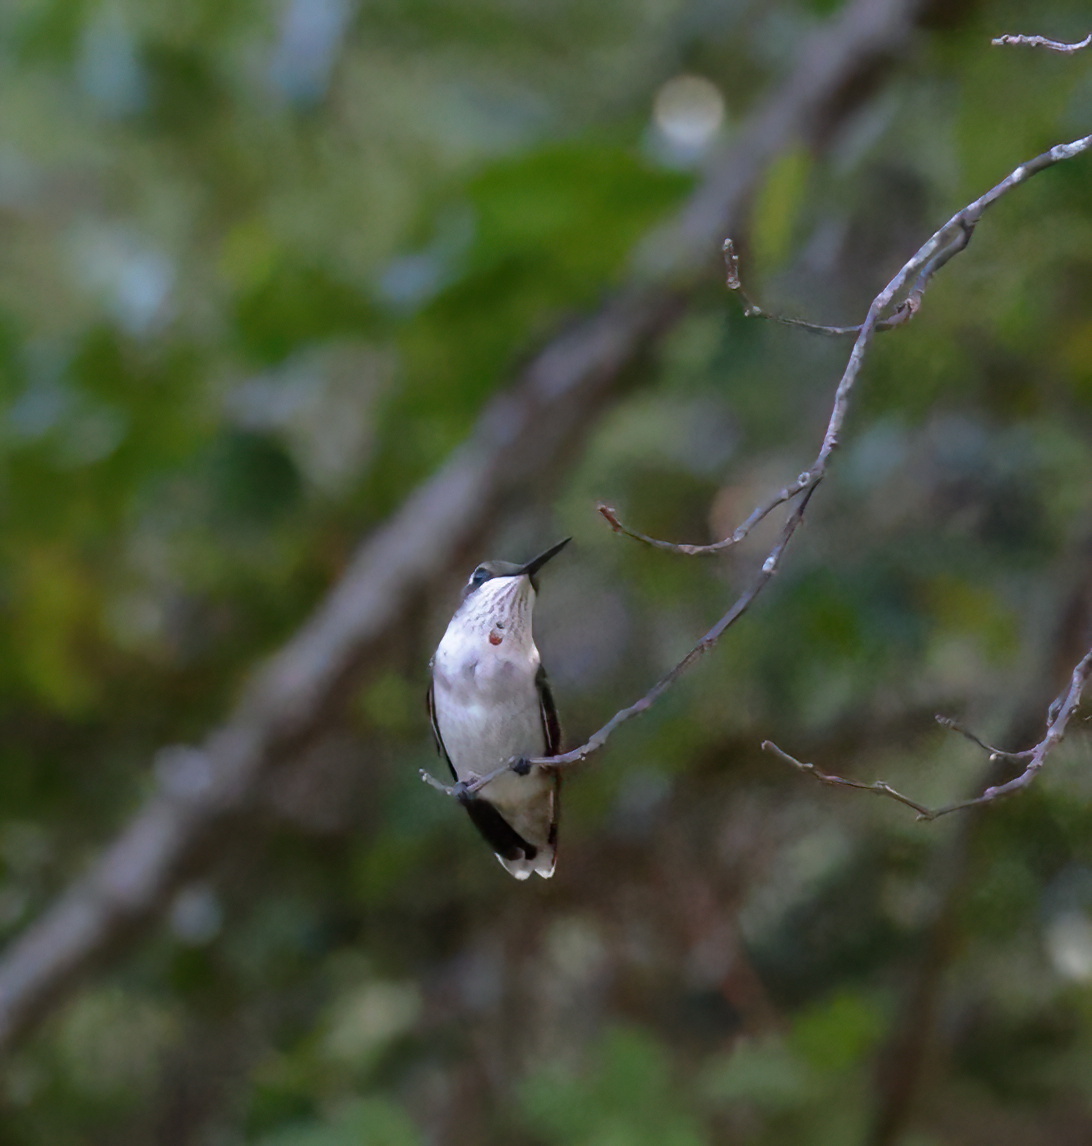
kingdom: Animalia
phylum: Chordata
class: Aves
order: Apodiformes
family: Trochilidae
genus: Archilochus
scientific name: Archilochus colubris
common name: Ruby-throated hummingbird
